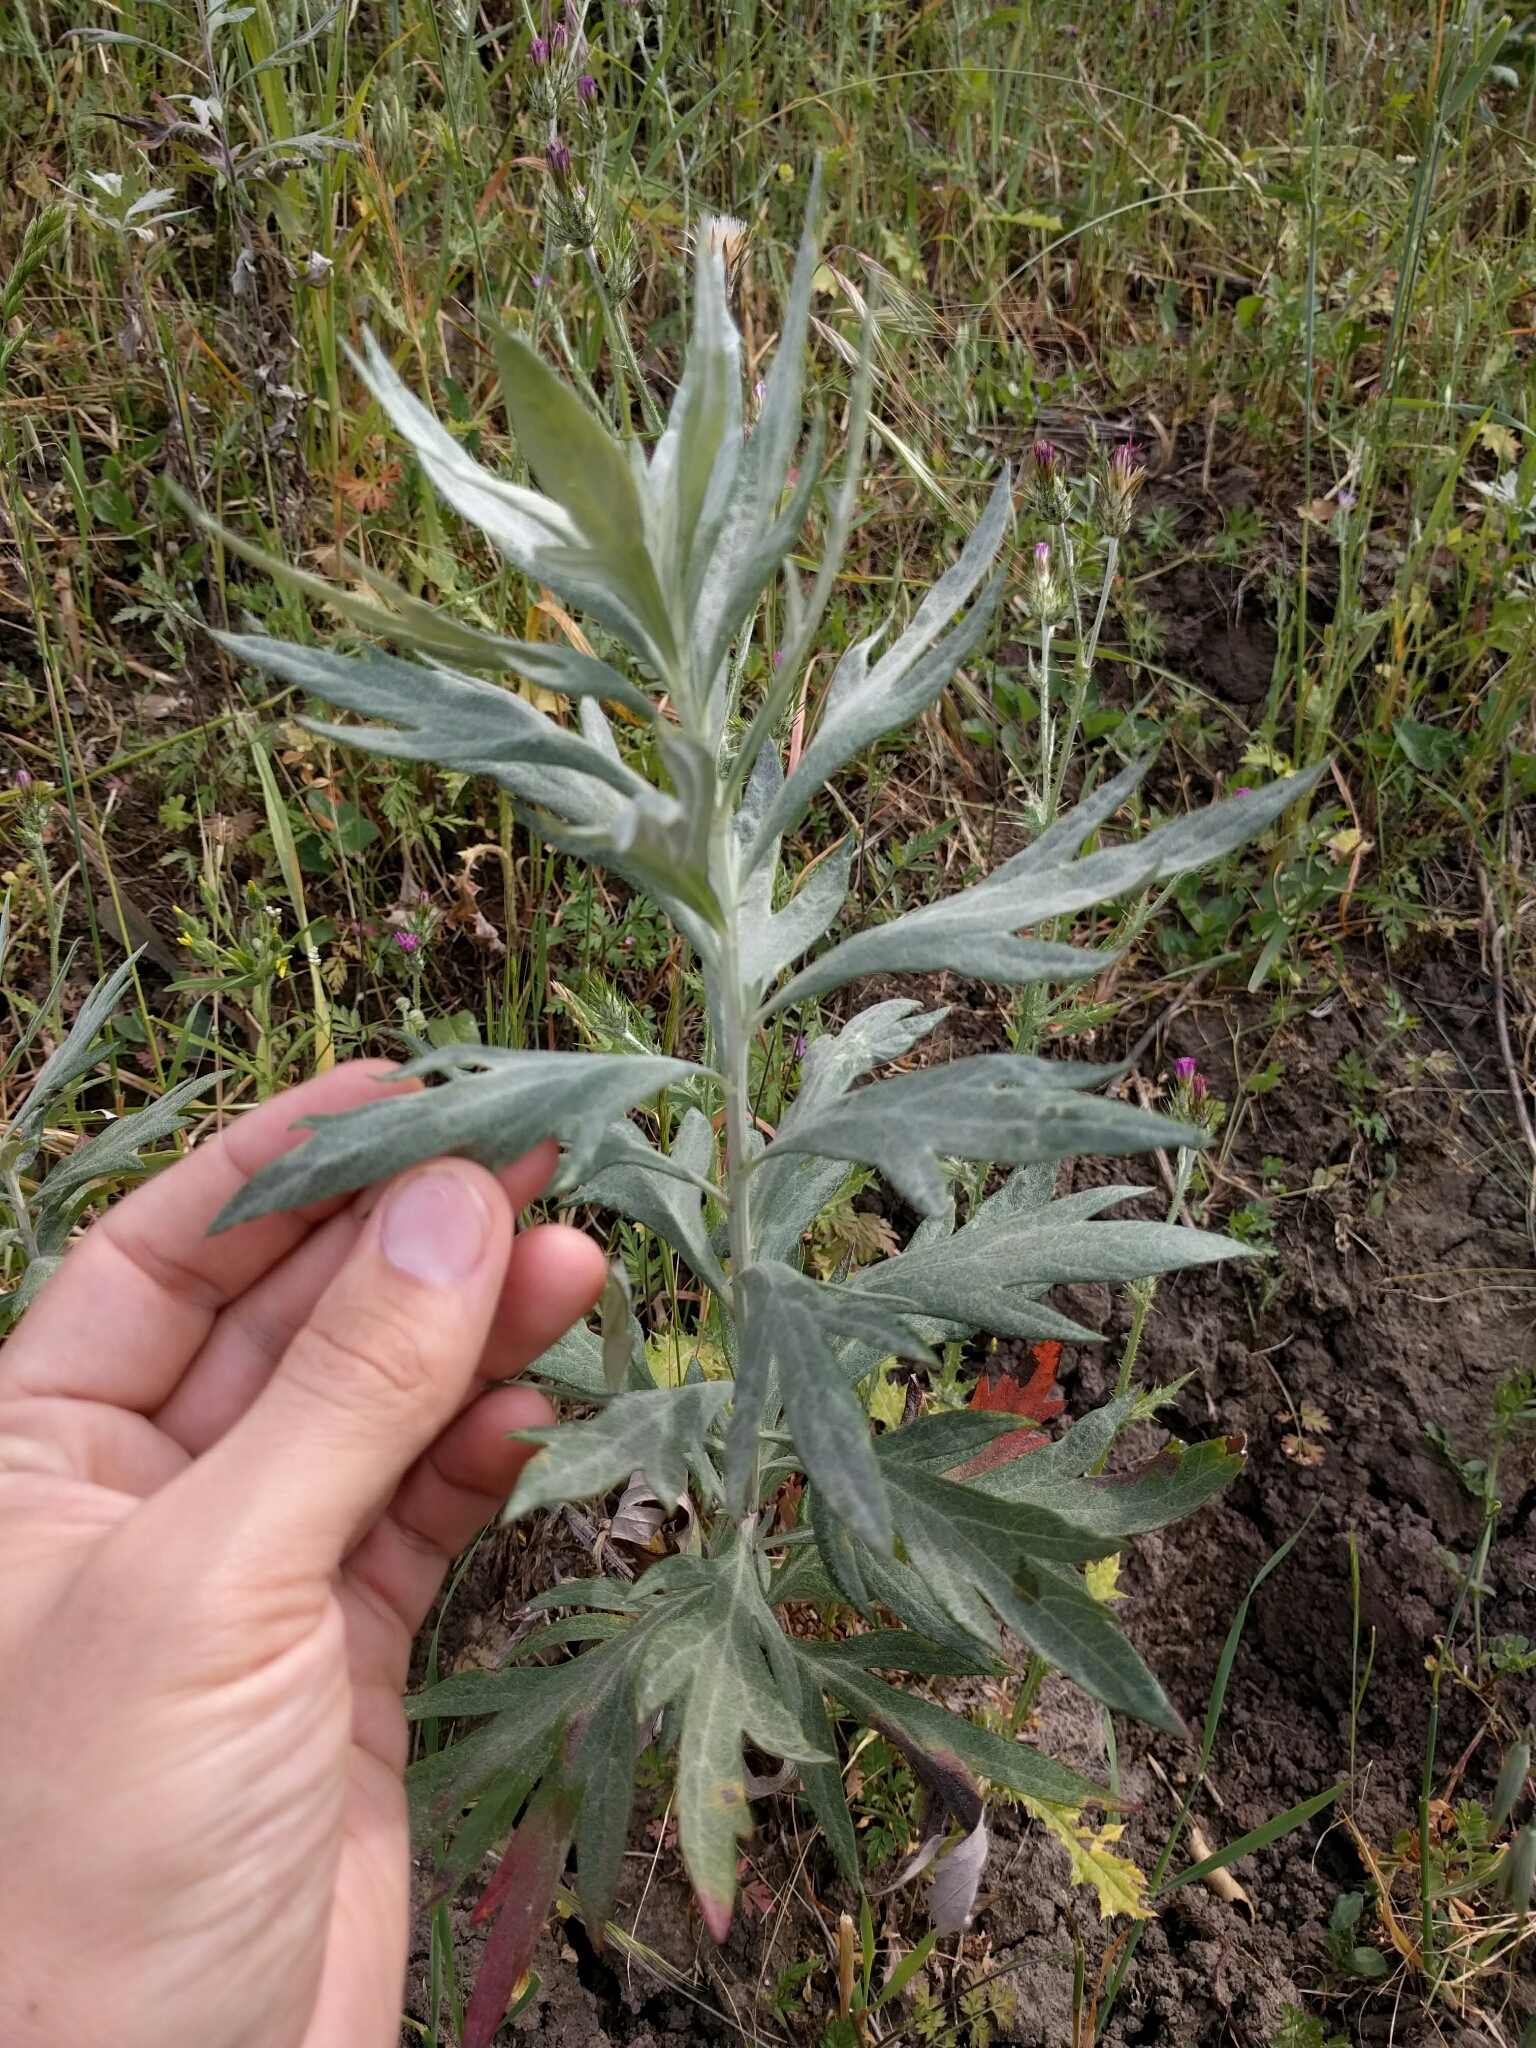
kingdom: Plantae
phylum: Tracheophyta
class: Magnoliopsida
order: Asterales
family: Asteraceae
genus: Artemisia
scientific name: Artemisia douglasiana
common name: Northwest mugwort
